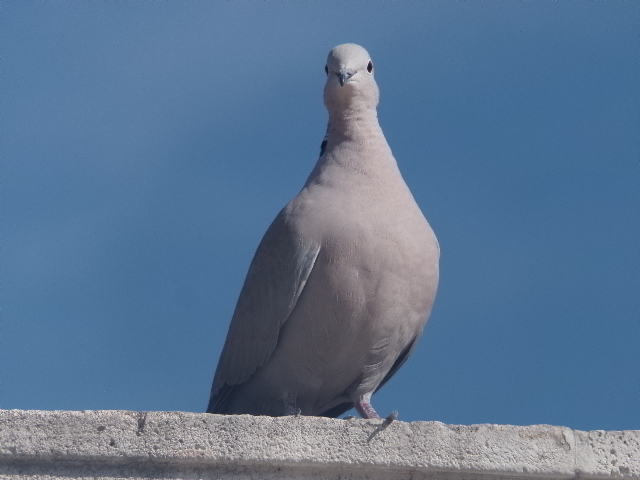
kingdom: Animalia
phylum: Chordata
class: Aves
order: Columbiformes
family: Columbidae
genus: Streptopelia
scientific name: Streptopelia decaocto
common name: Eurasian collared dove
